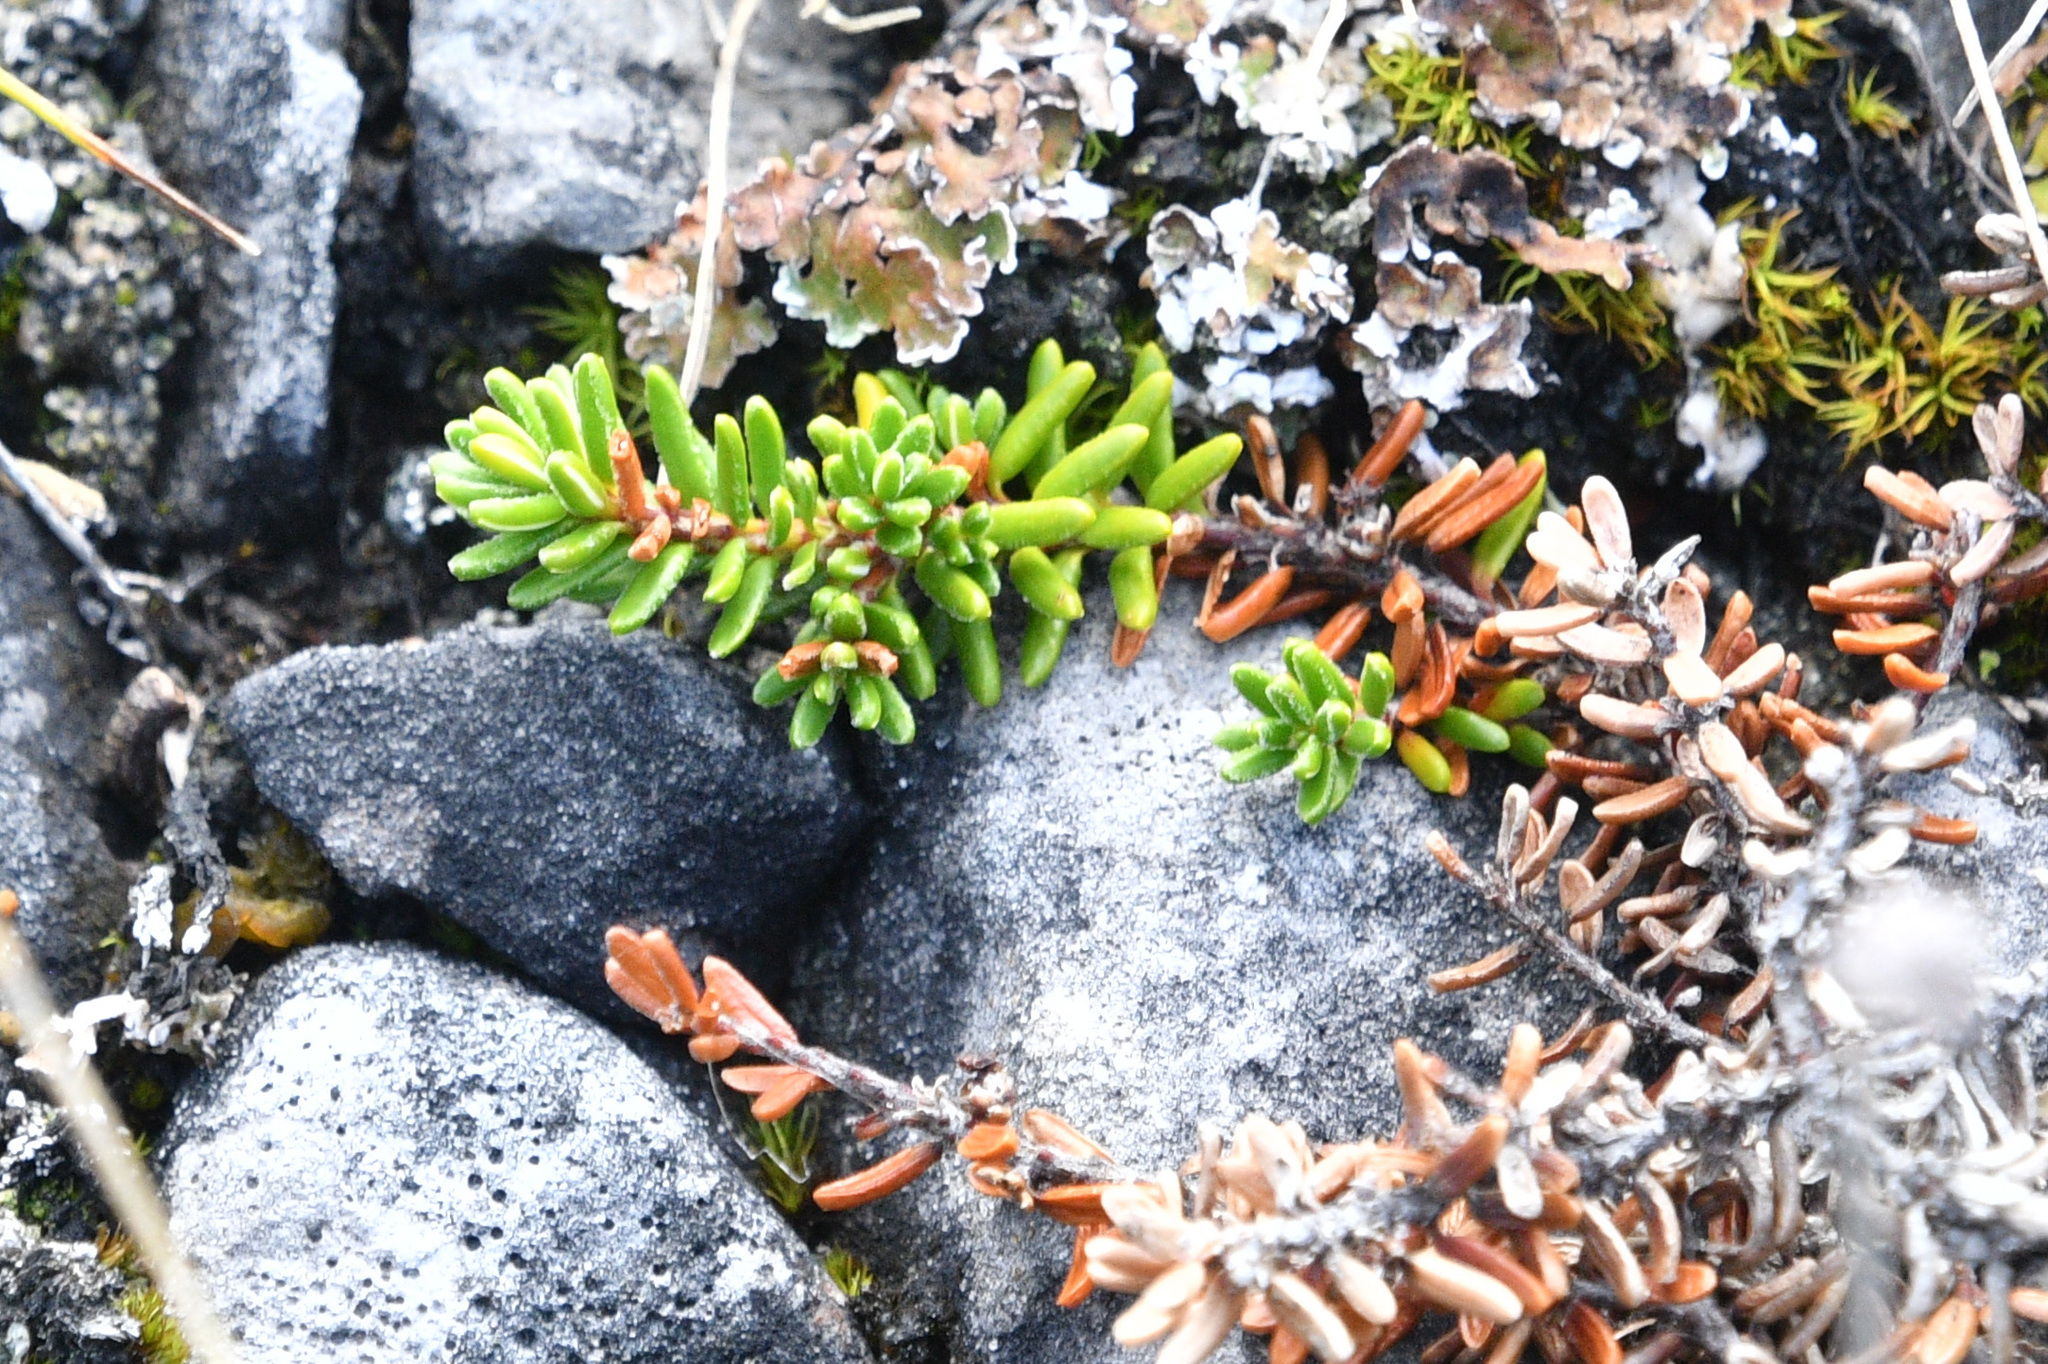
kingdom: Plantae
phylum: Tracheophyta
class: Magnoliopsida
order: Ericales
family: Ericaceae
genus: Empetrum
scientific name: Empetrum nigrum
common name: Black crowberry
